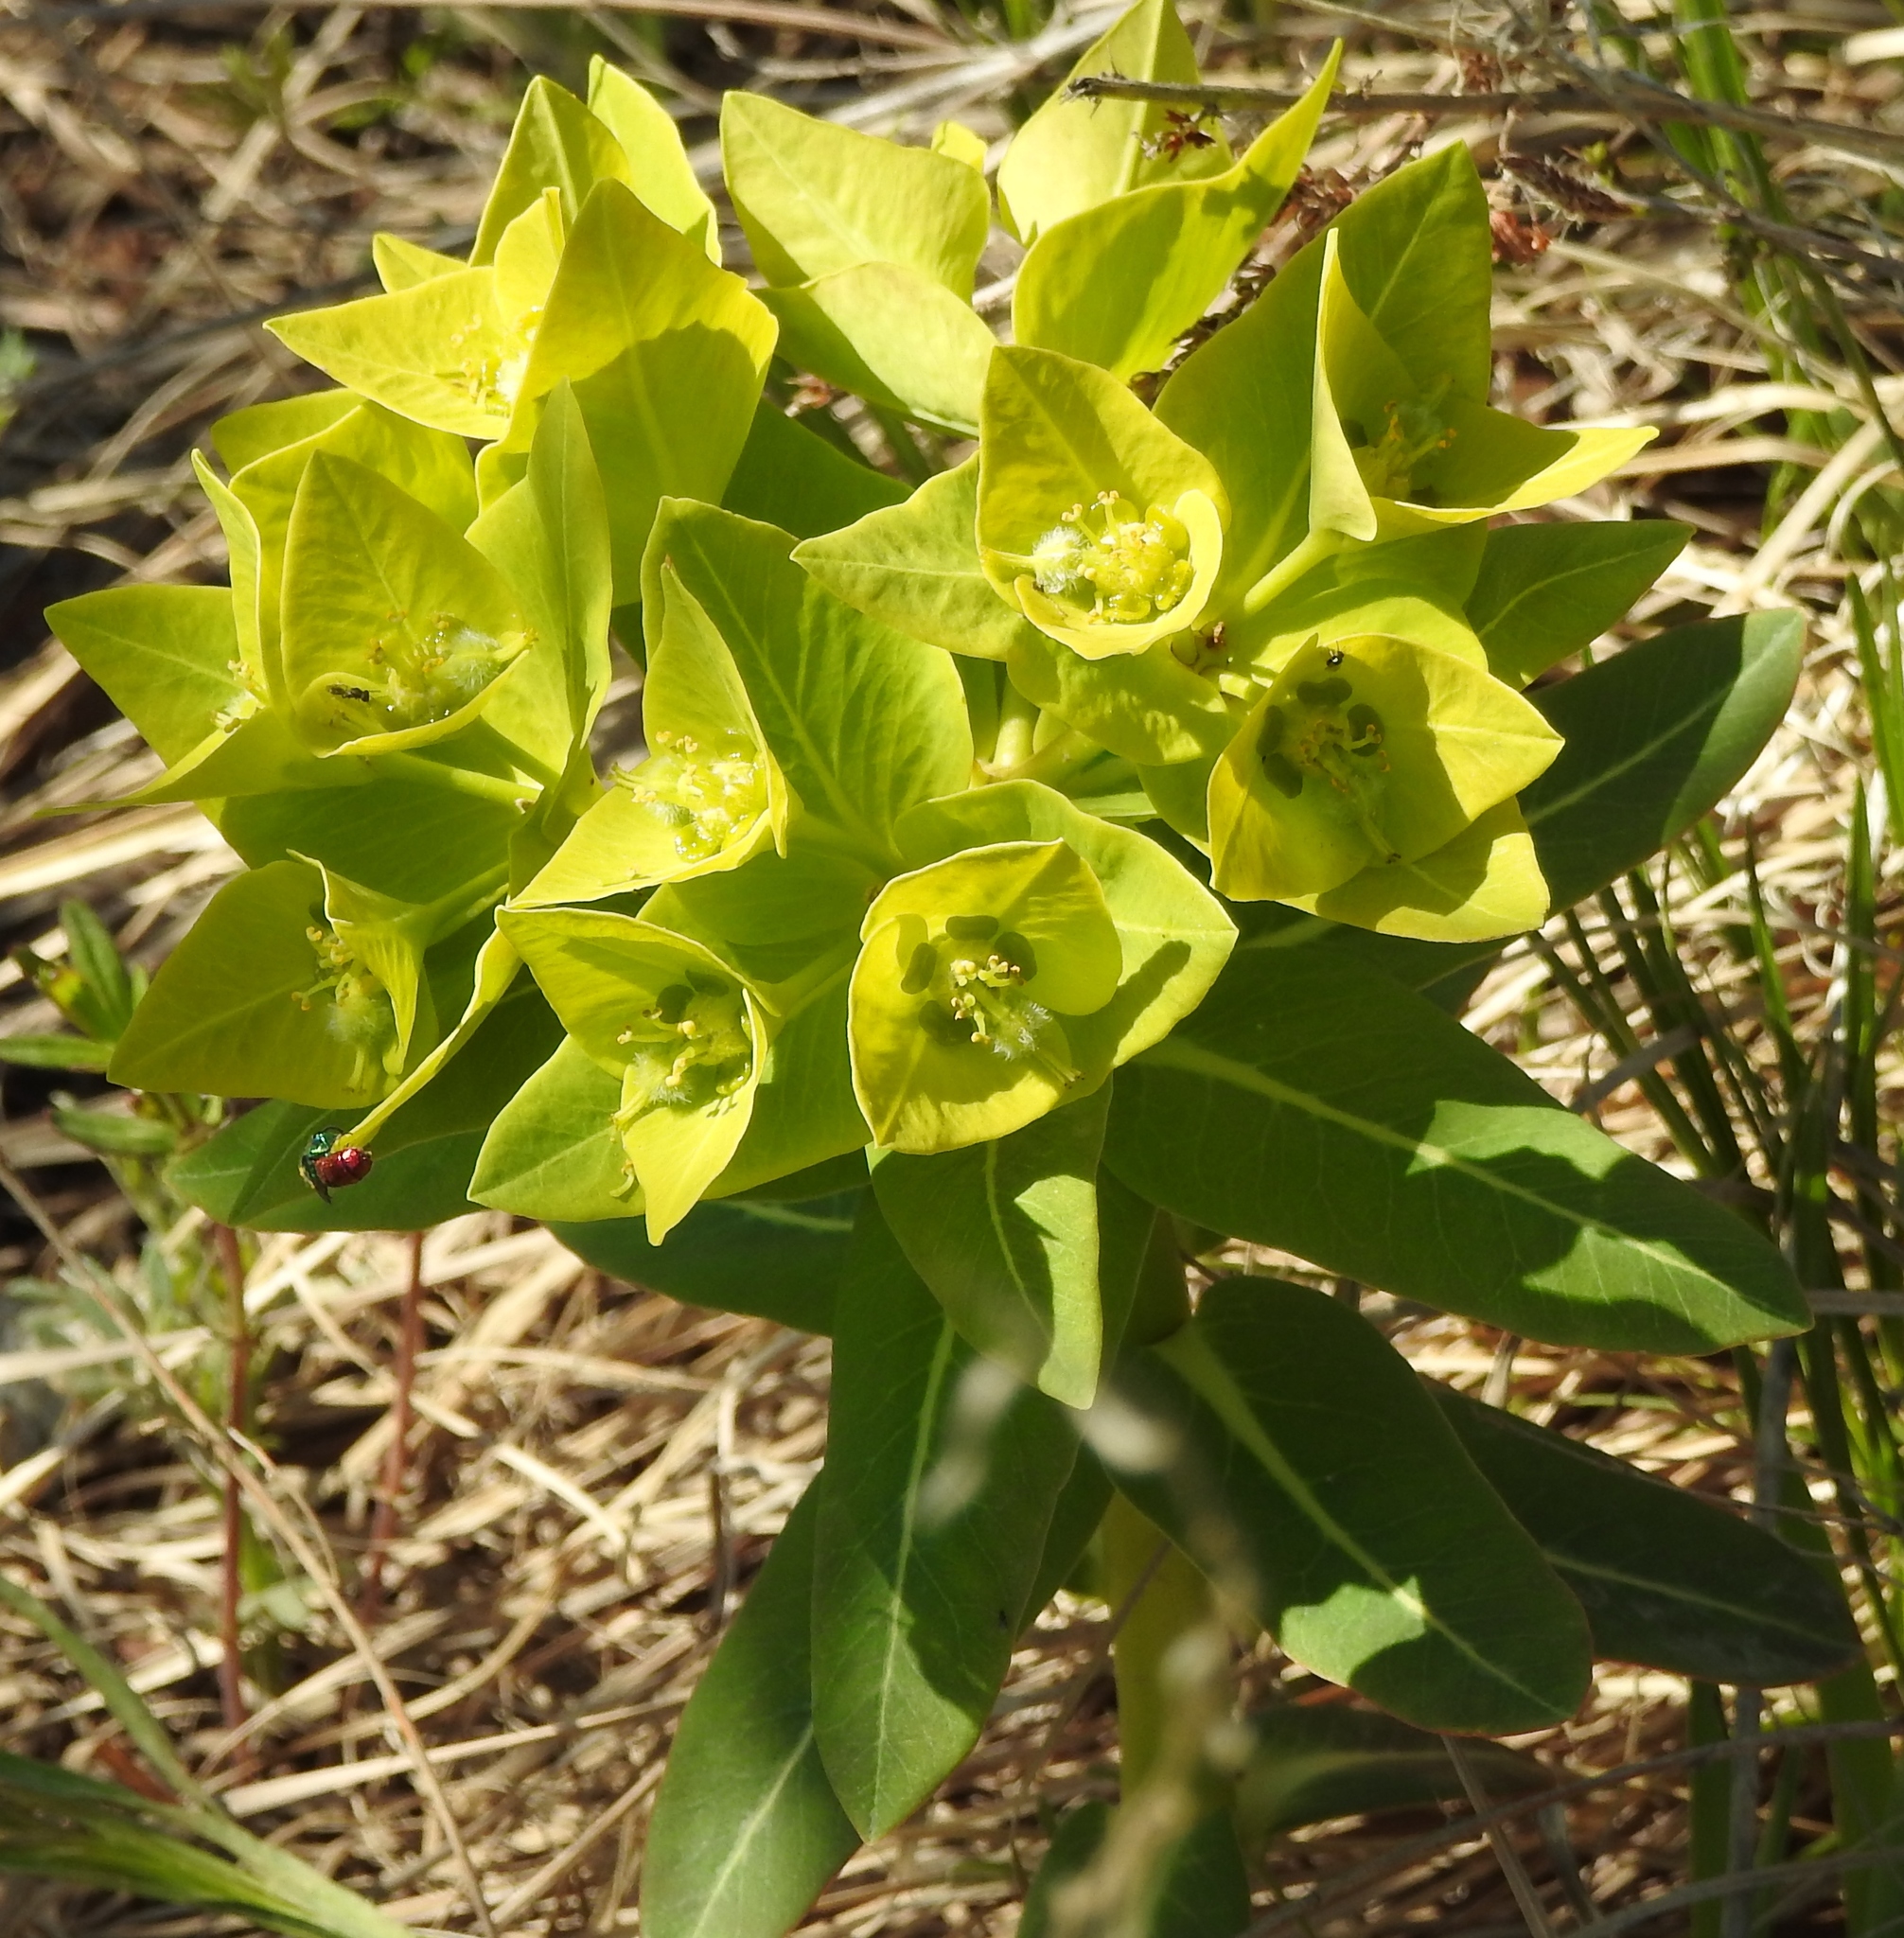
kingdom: Plantae
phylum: Tracheophyta
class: Magnoliopsida
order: Malpighiales
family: Euphorbiaceae
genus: Euphorbia
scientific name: Euphorbia fischeriana
